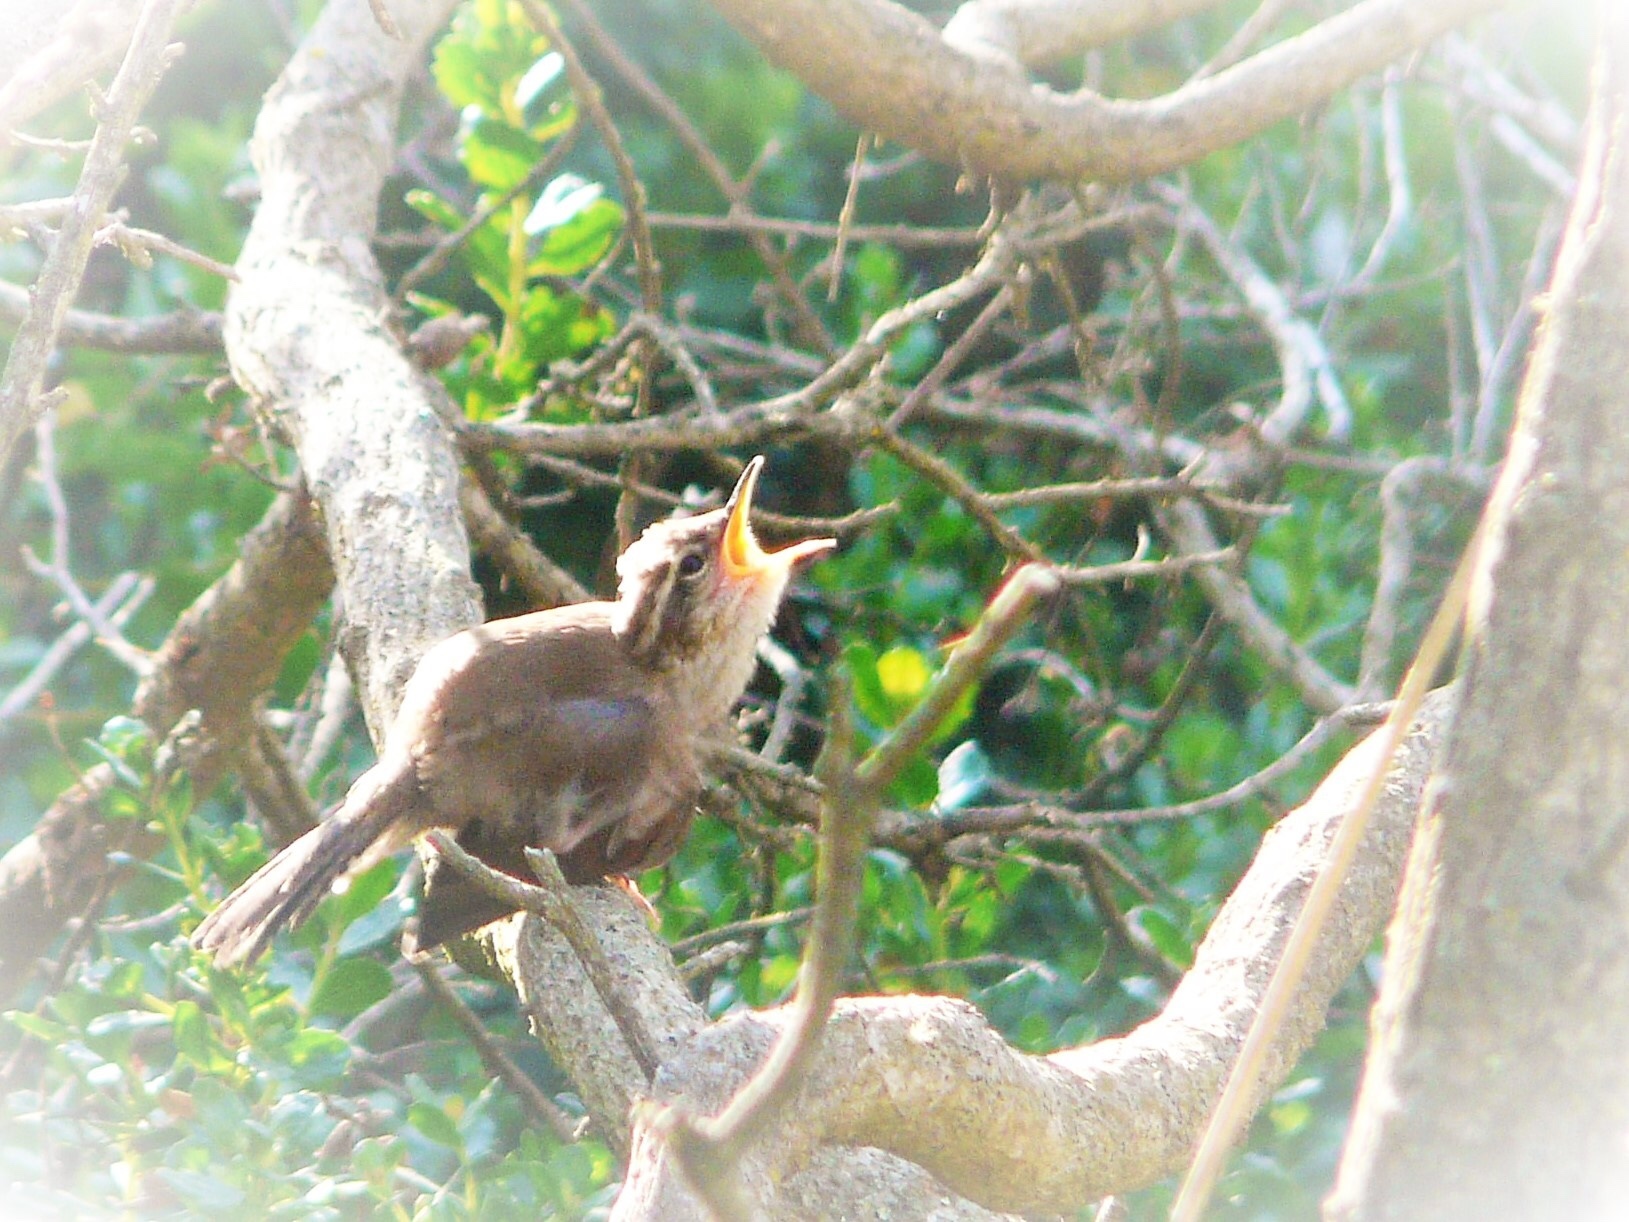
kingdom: Animalia
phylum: Chordata
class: Aves
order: Passeriformes
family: Troglodytidae
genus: Thryomanes
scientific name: Thryomanes bewickii
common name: Bewick's wren
